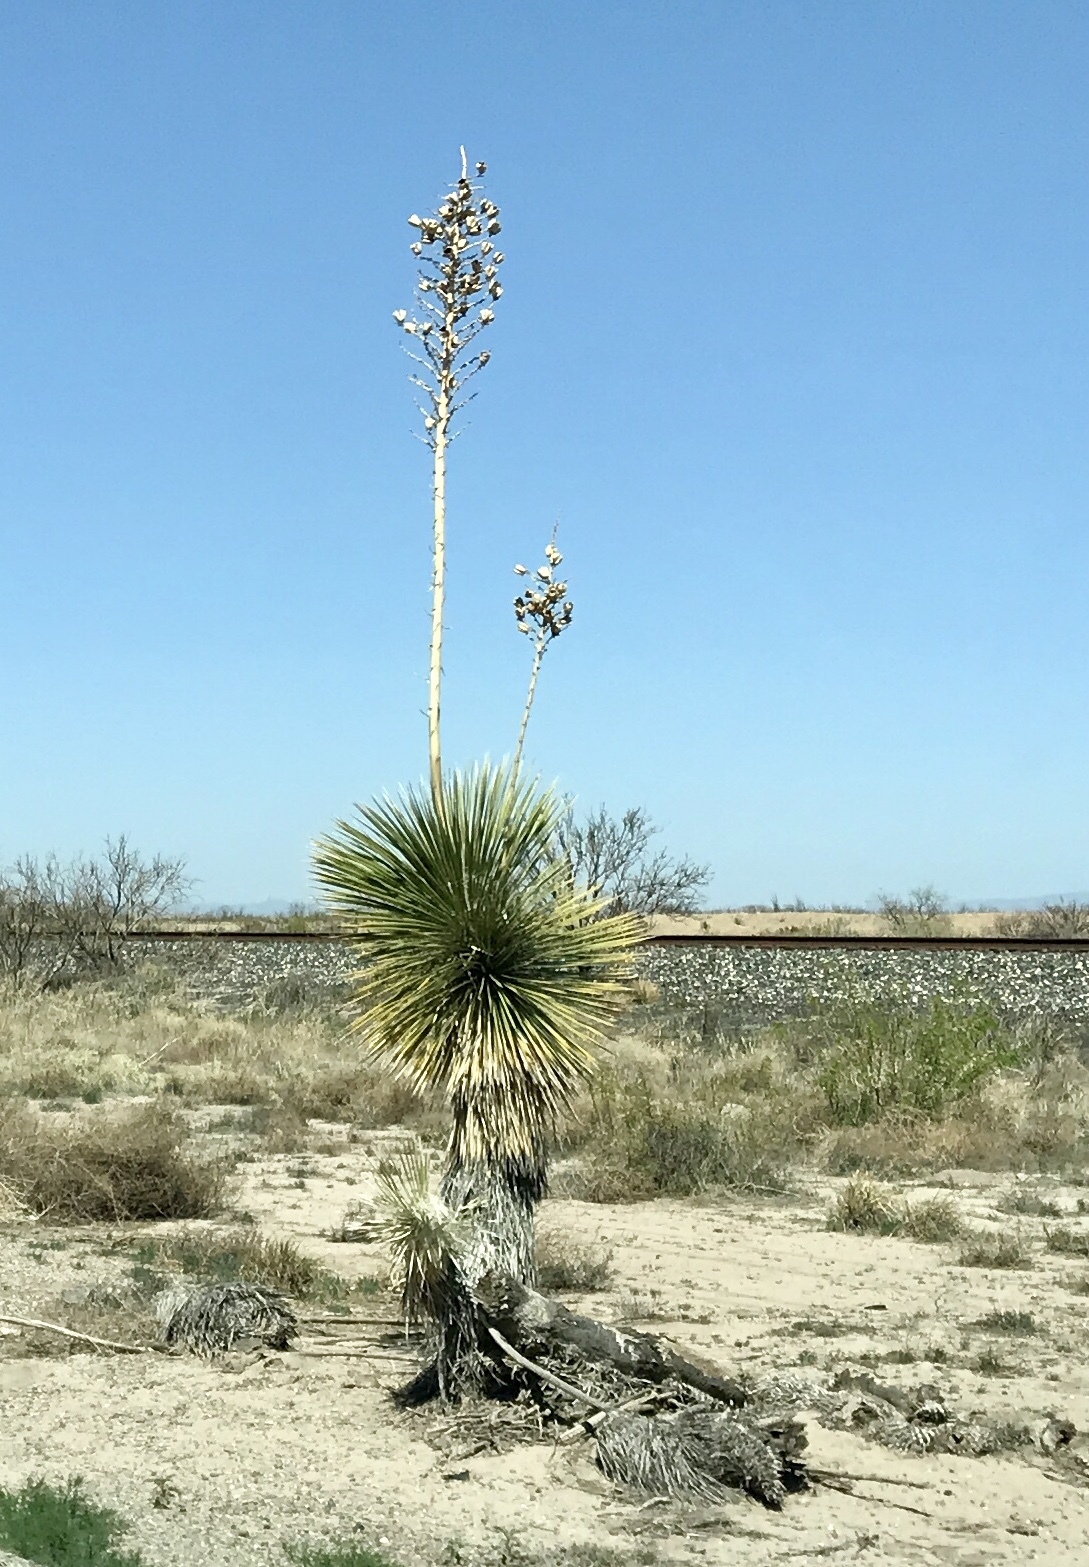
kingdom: Plantae
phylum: Tracheophyta
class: Liliopsida
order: Asparagales
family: Asparagaceae
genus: Yucca
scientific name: Yucca elata
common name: Palmella
